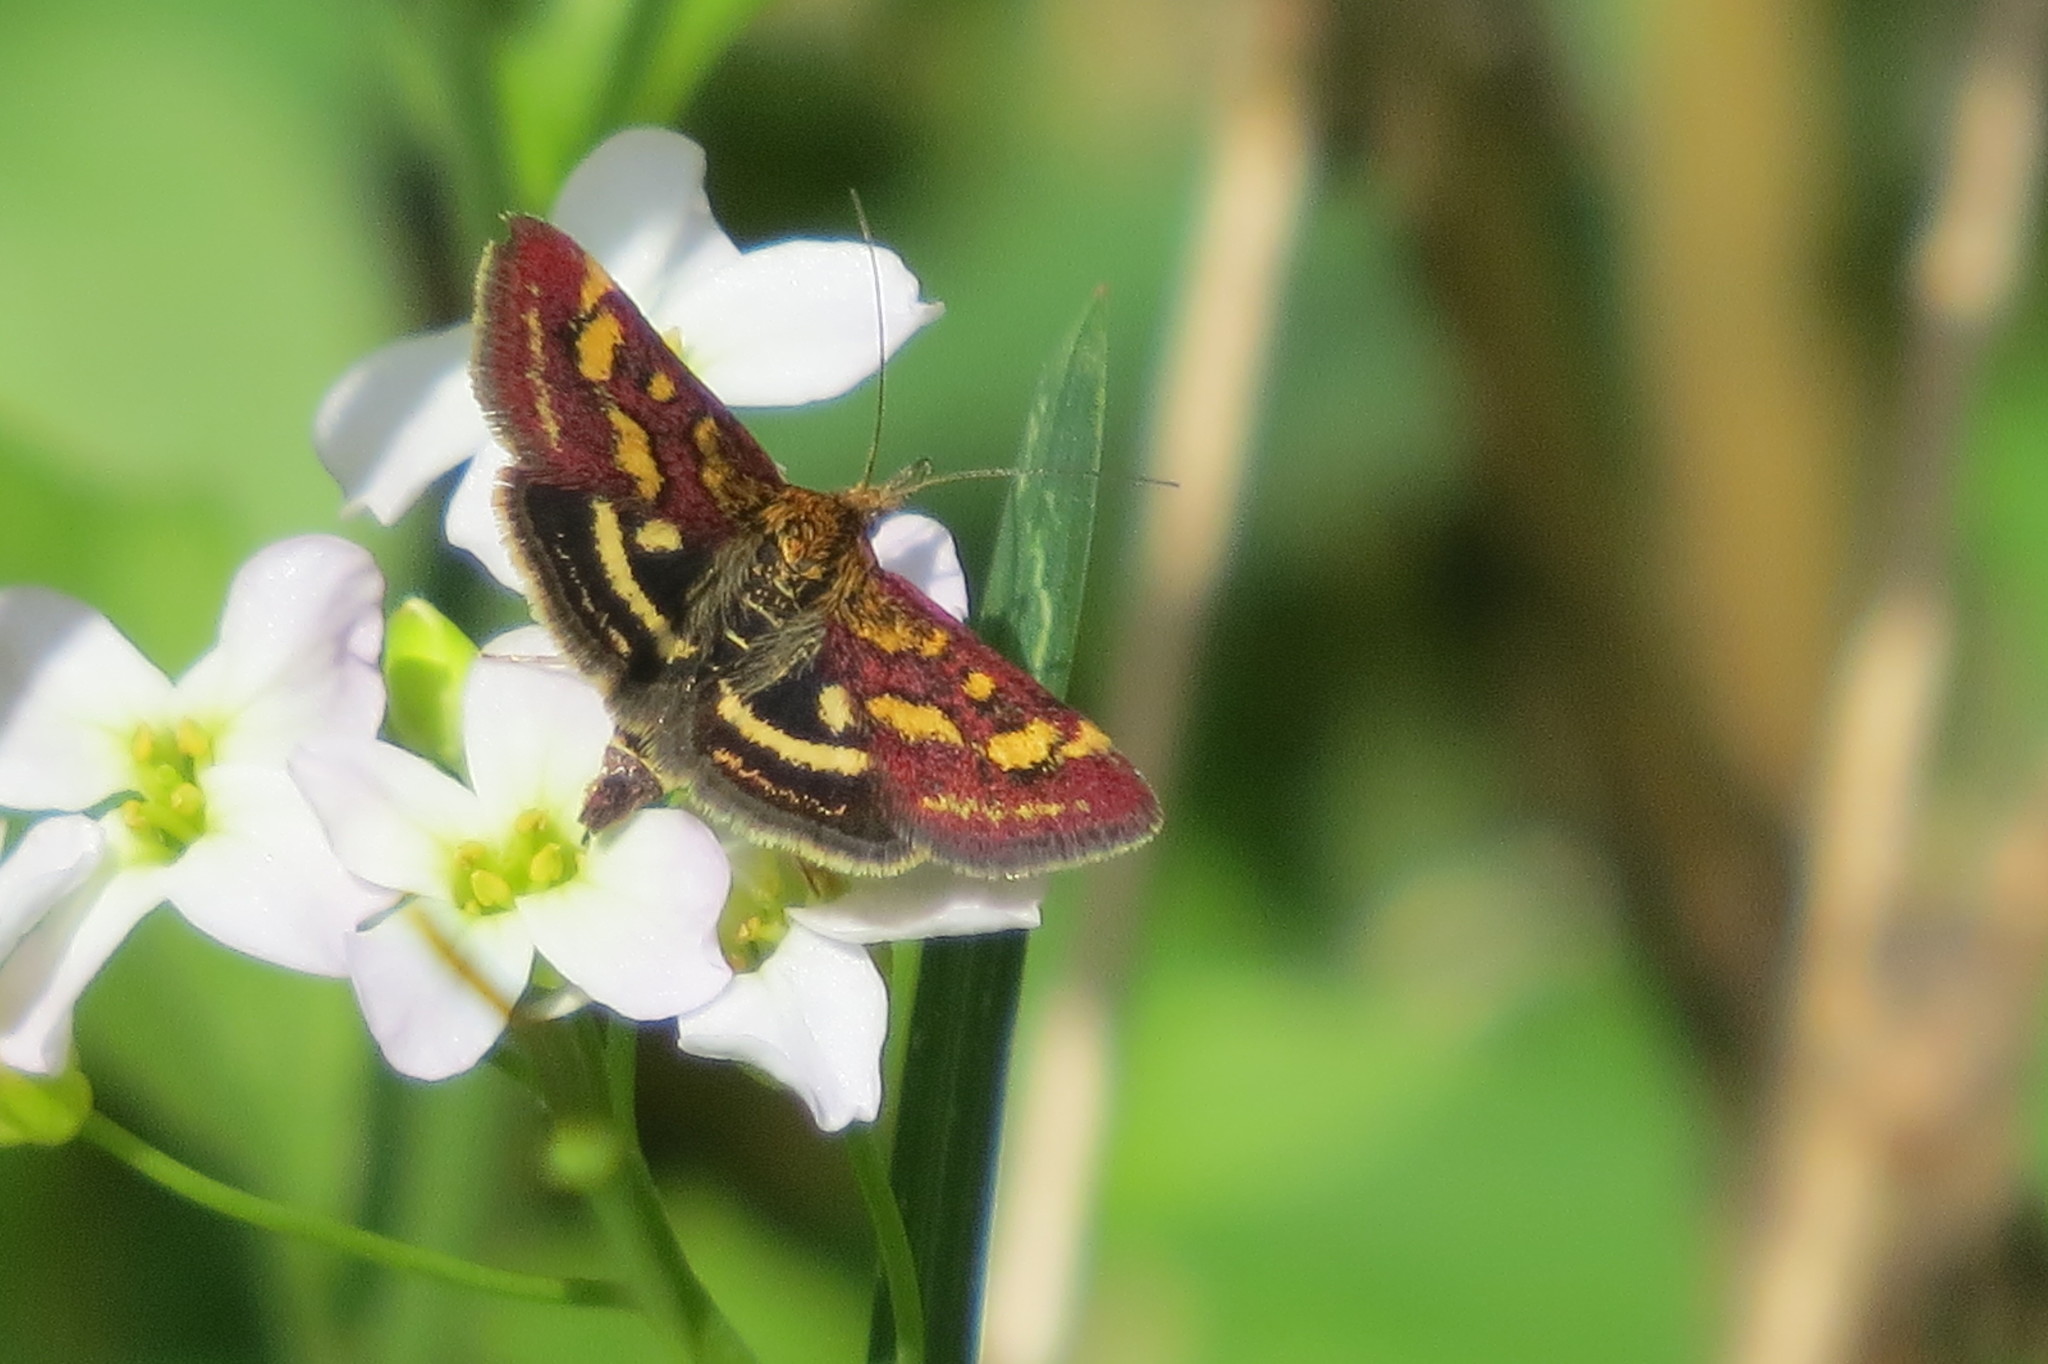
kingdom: Animalia
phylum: Arthropoda
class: Insecta
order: Lepidoptera
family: Crambidae
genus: Pyrausta
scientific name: Pyrausta purpuralis
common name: Common purple & gold
